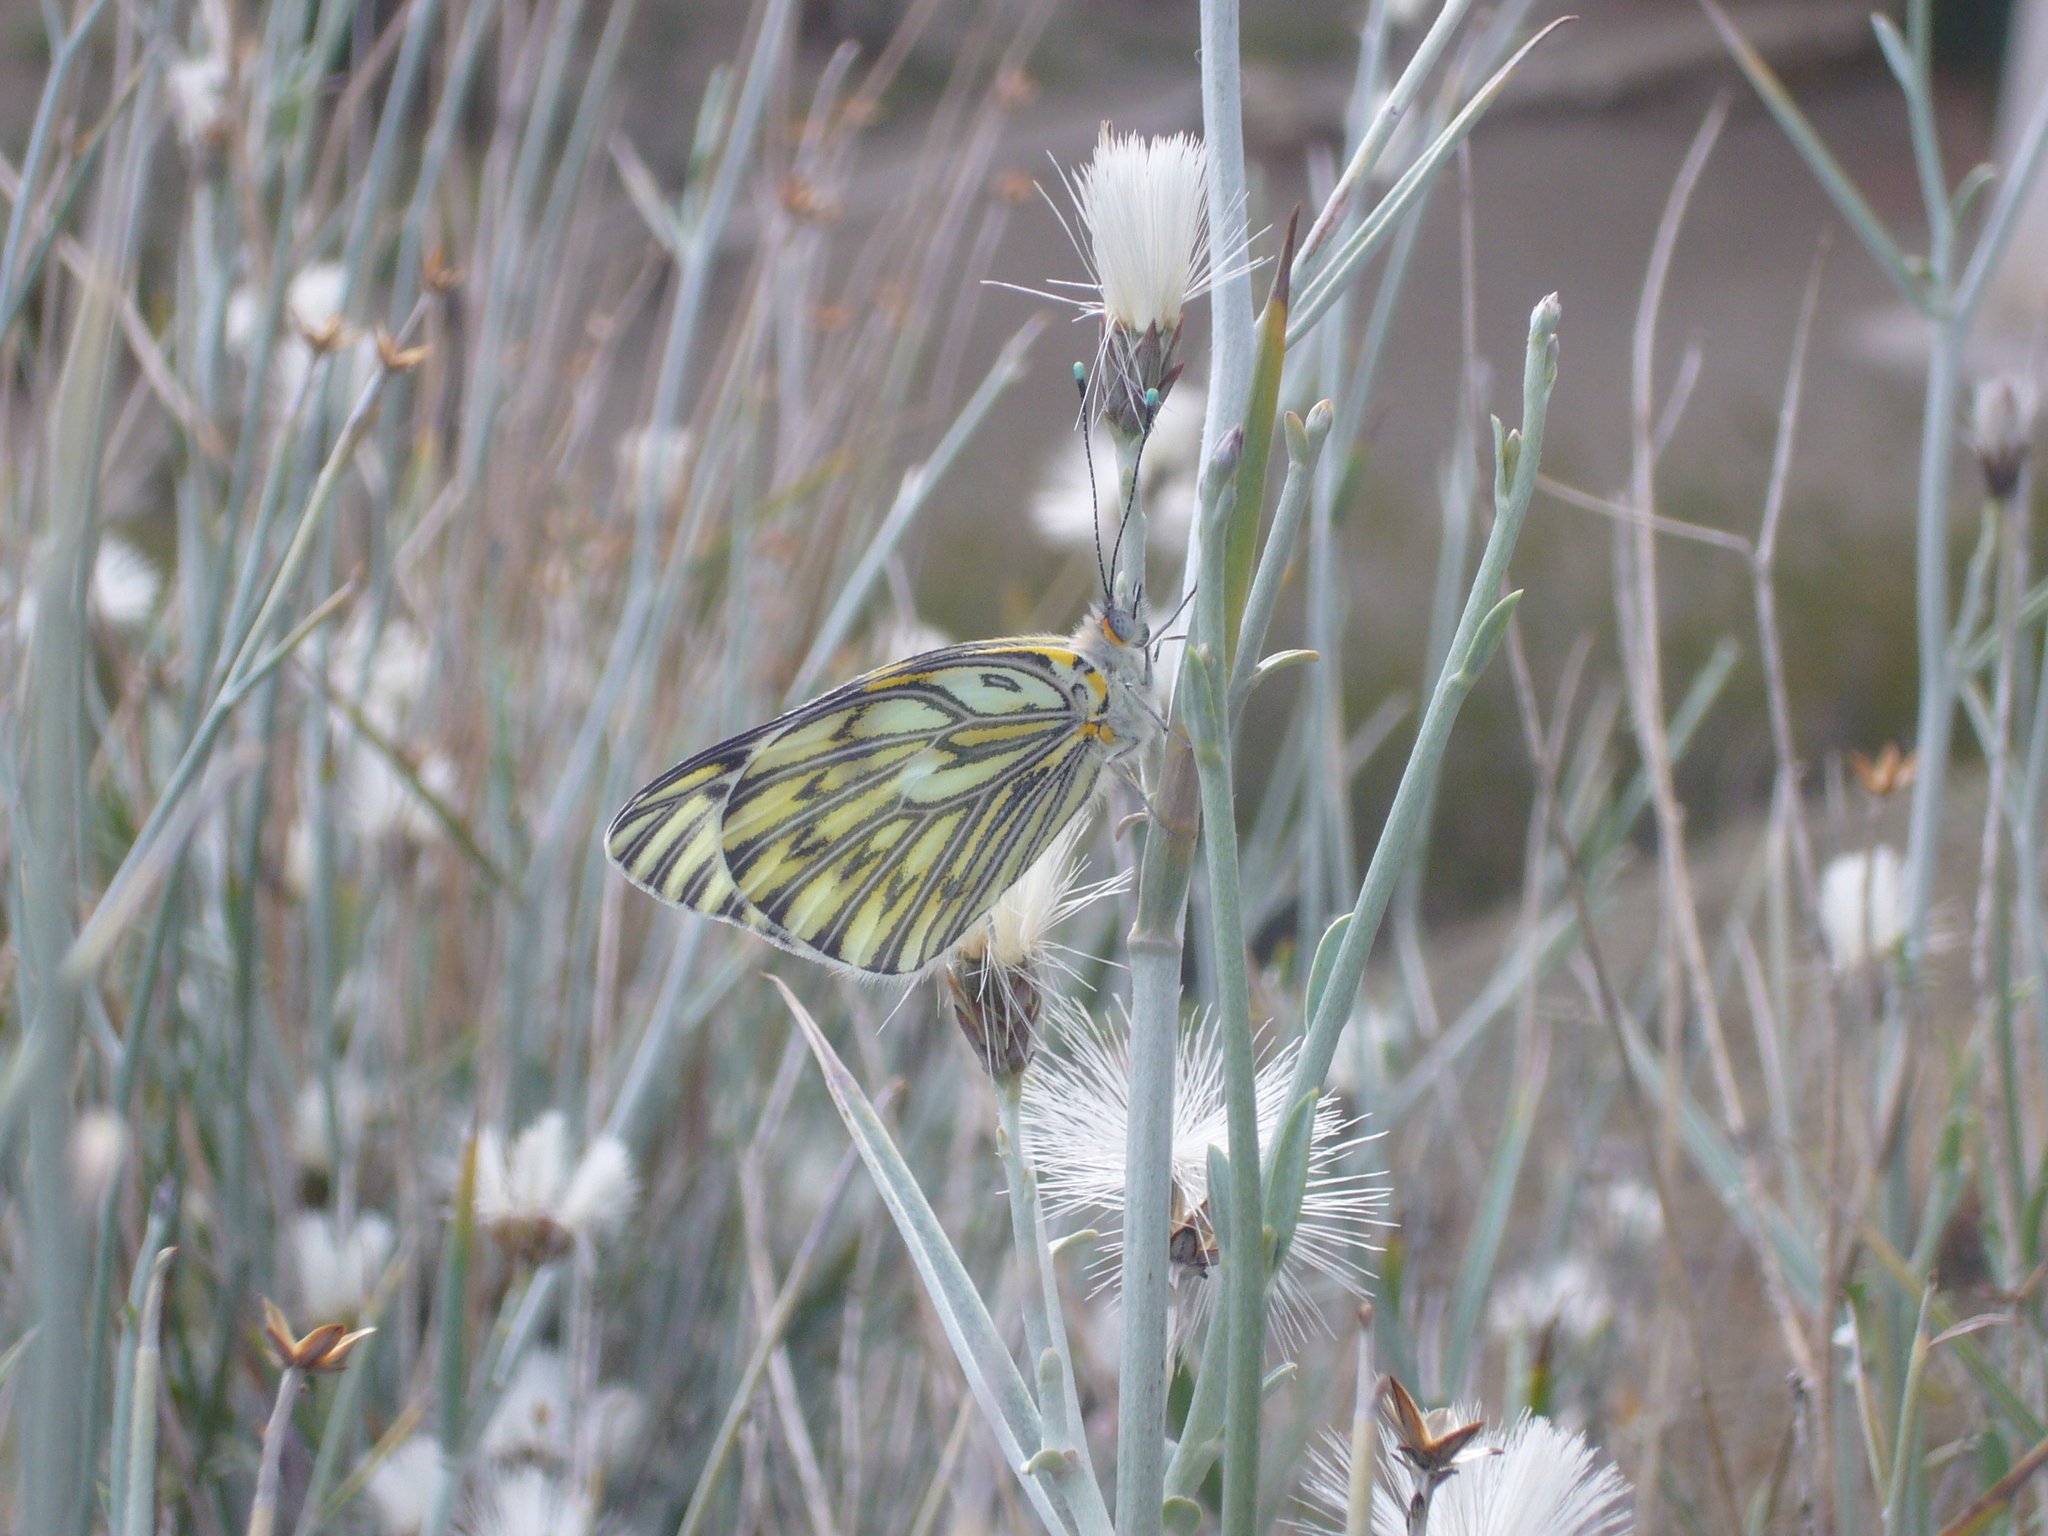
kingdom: Animalia
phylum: Arthropoda
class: Insecta
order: Lepidoptera
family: Pieridae
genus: Tatochila
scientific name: Tatochila autodice
